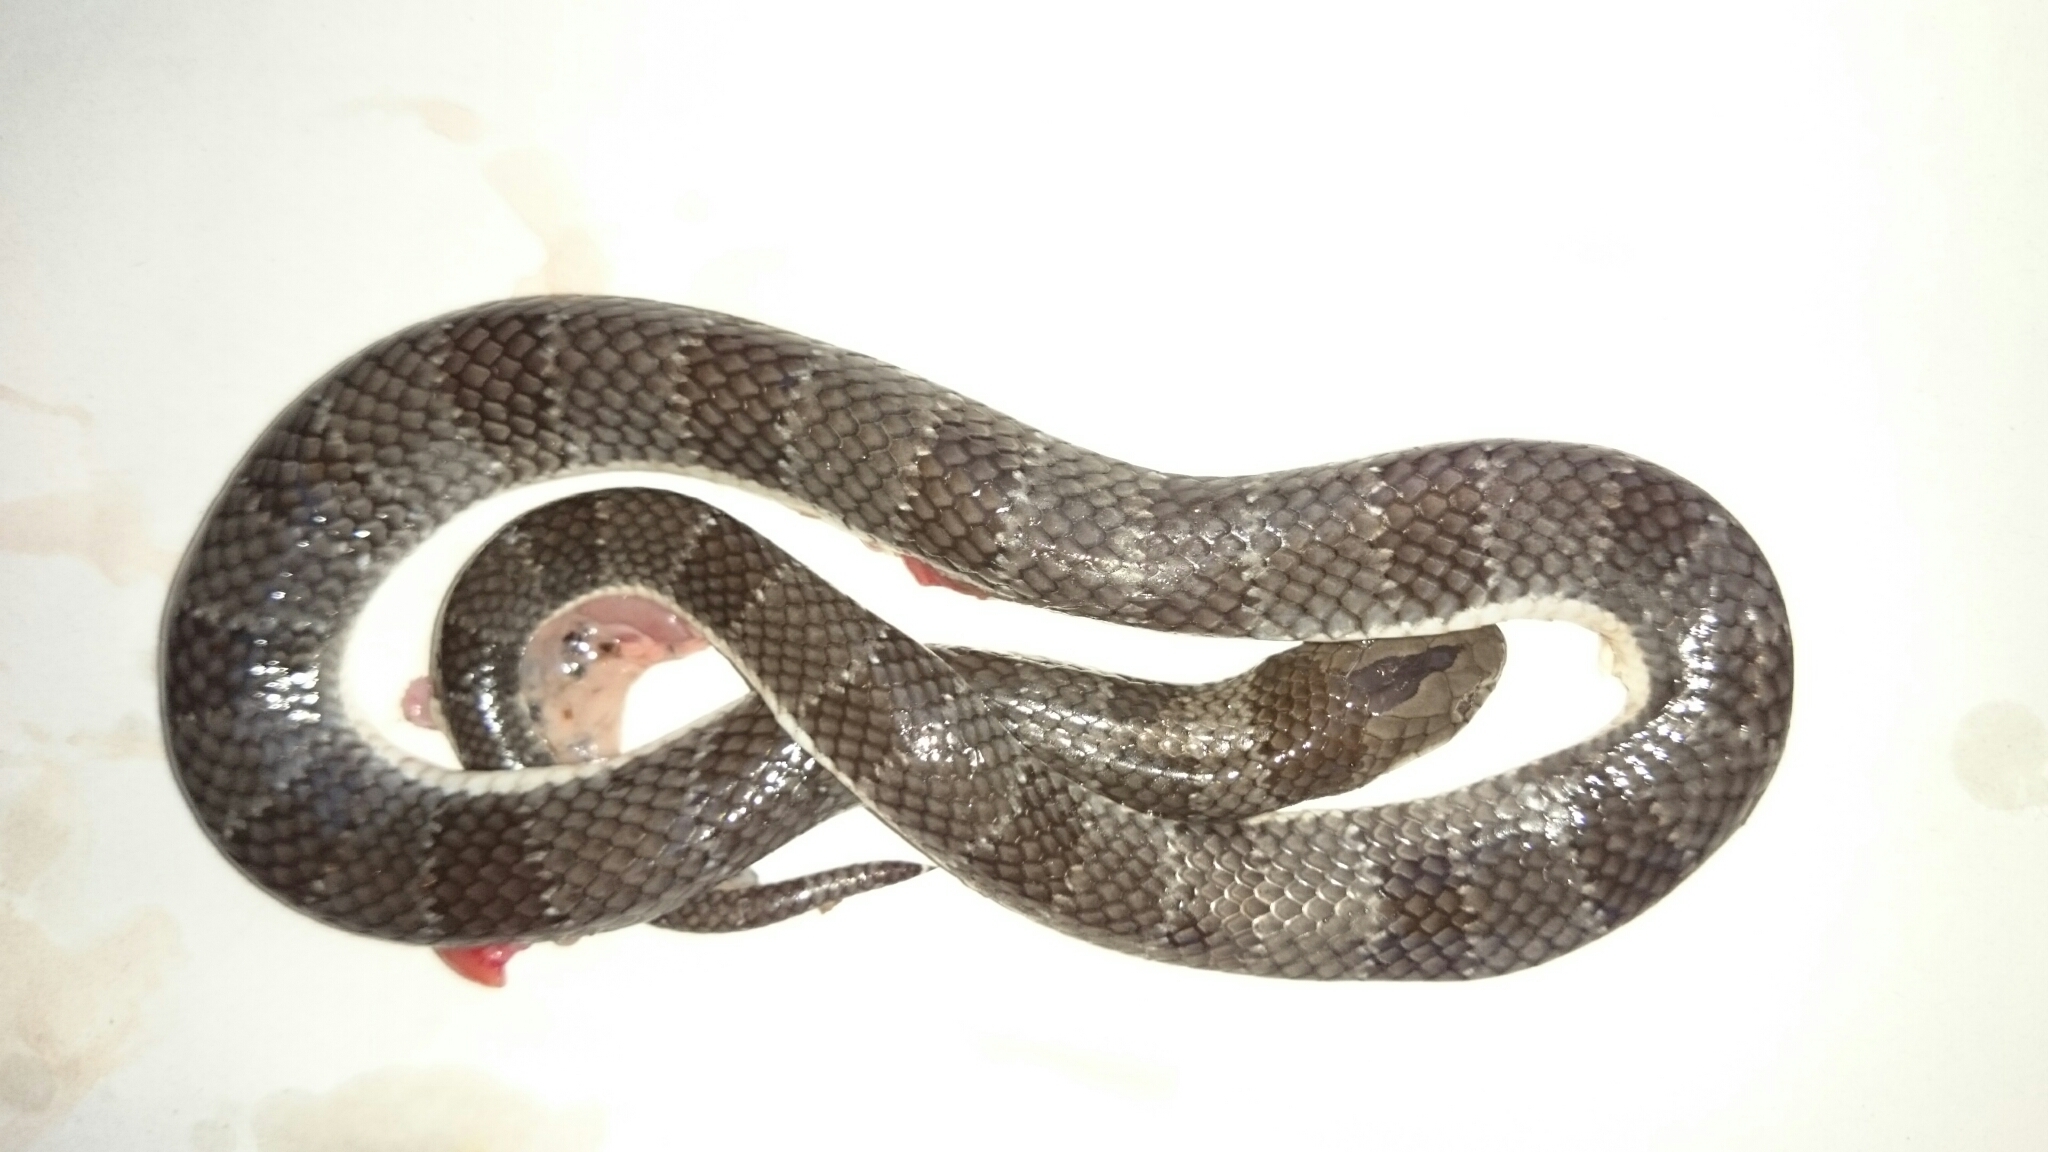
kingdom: Animalia
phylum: Chordata
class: Squamata
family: Elapidae
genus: Elapsoidea
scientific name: Elapsoidea sundevallii
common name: Sundevall's garter snake
